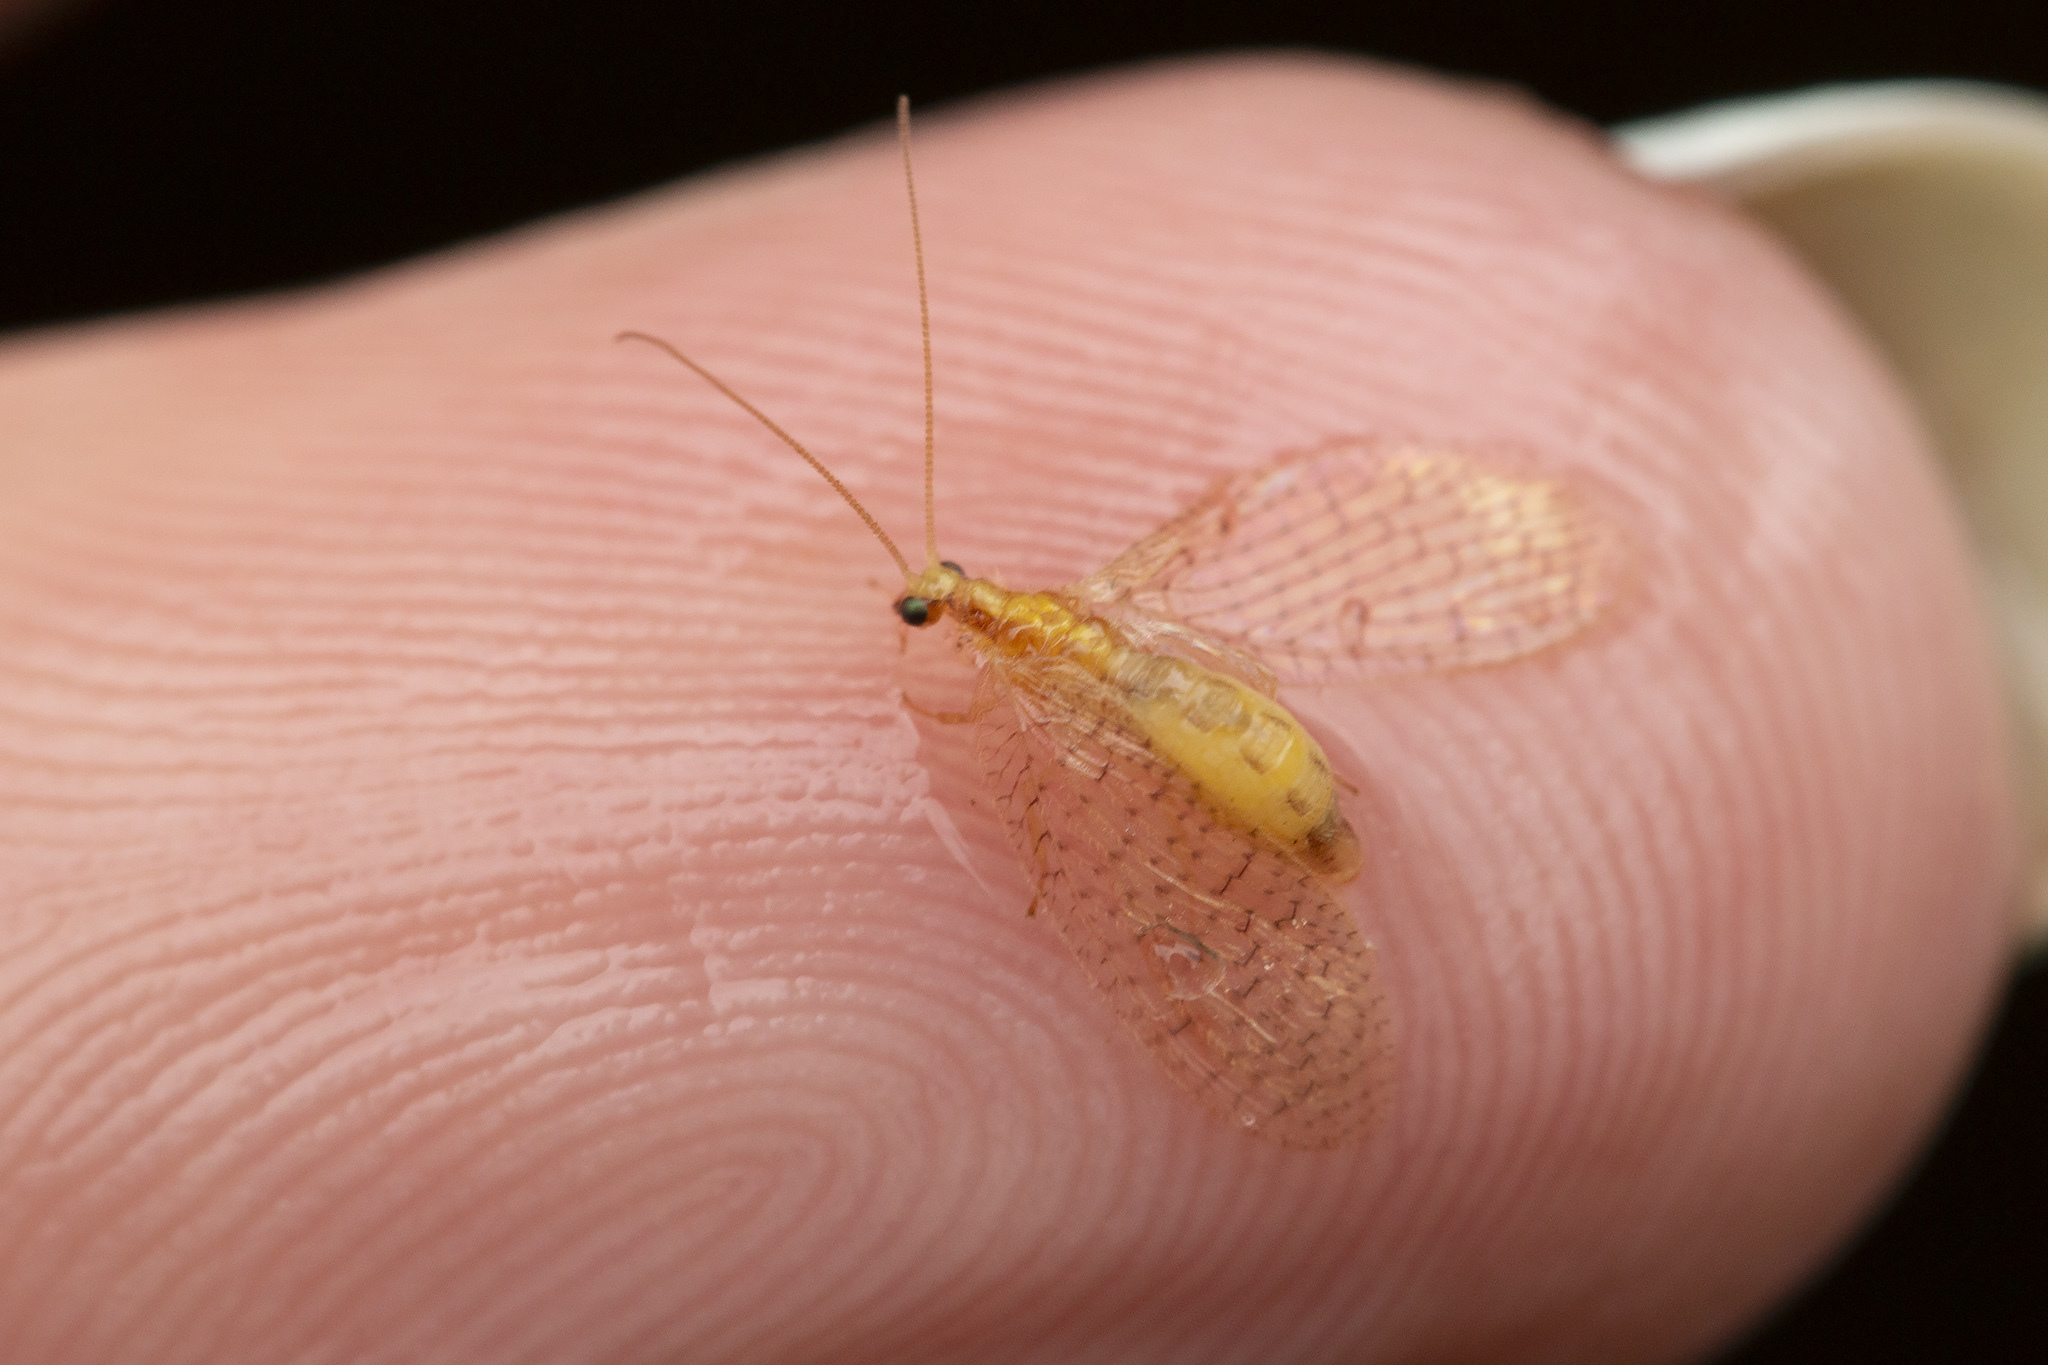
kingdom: Animalia
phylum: Arthropoda
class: Insecta
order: Neuroptera
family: Hemerobiidae
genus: Hemerobius
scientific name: Hemerobius micans
